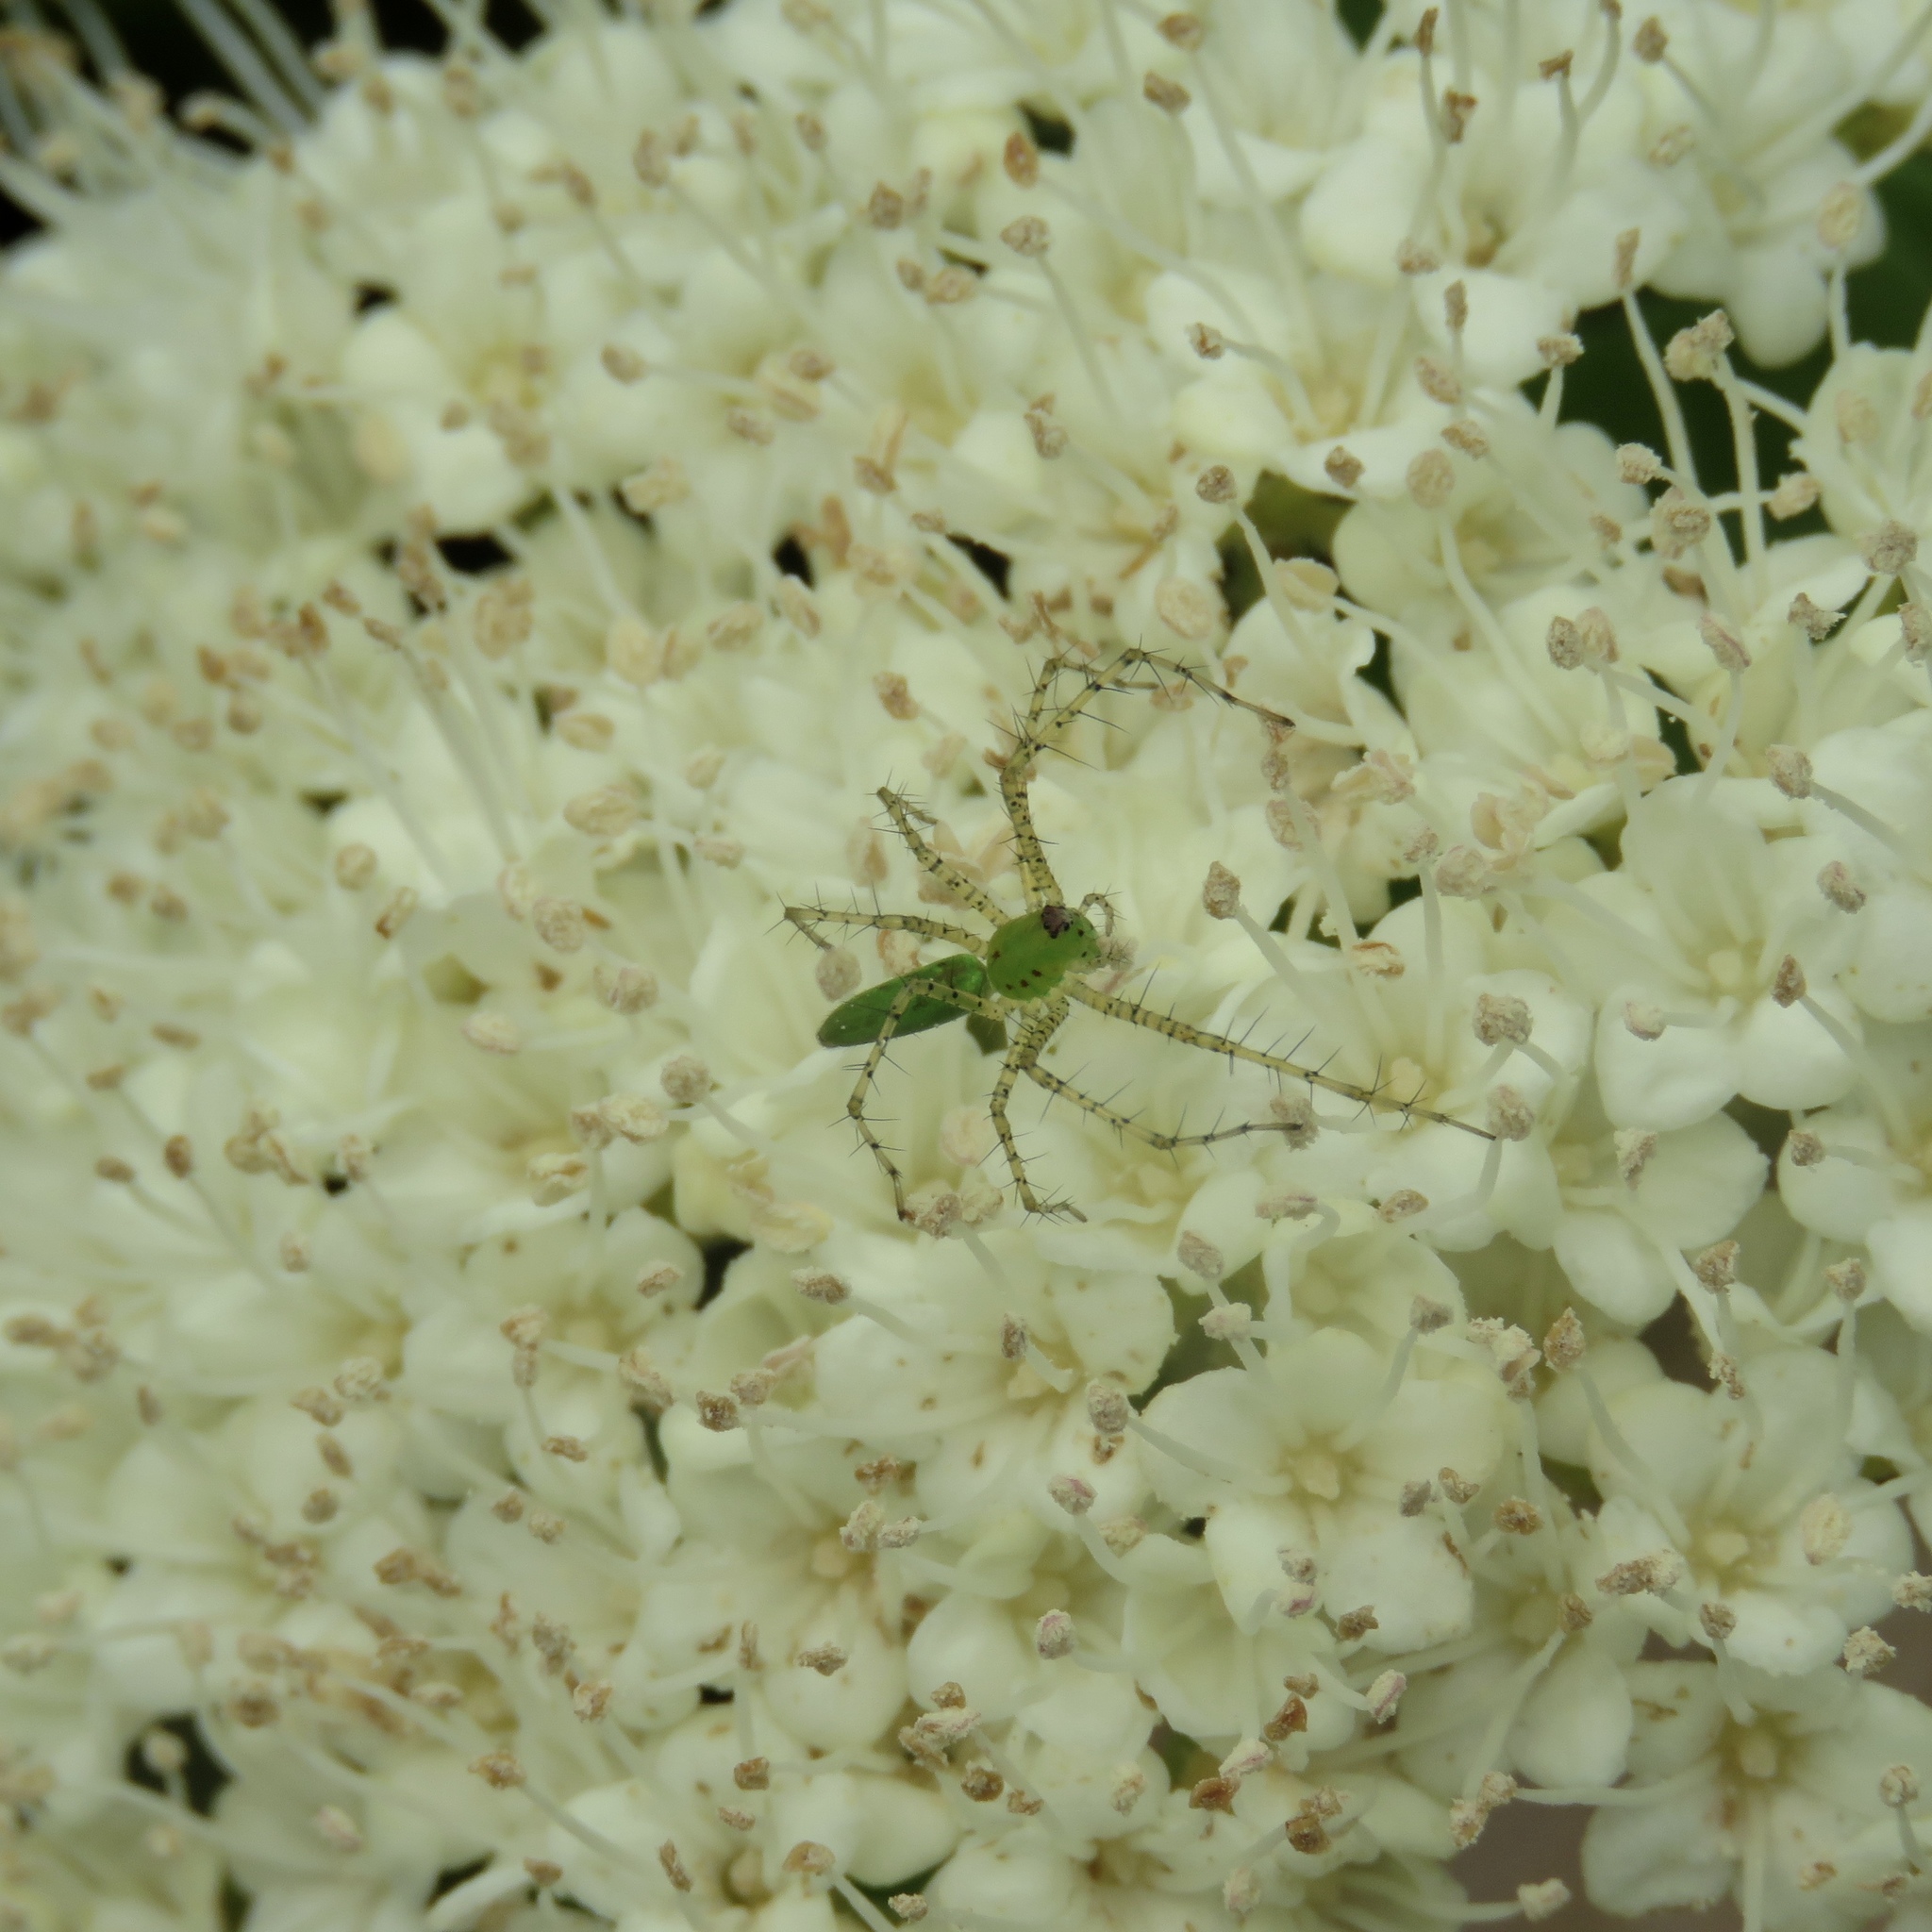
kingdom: Animalia
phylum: Arthropoda
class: Arachnida
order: Araneae
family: Oxyopidae
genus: Peucetia
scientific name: Peucetia viridans
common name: Lynx spiders
